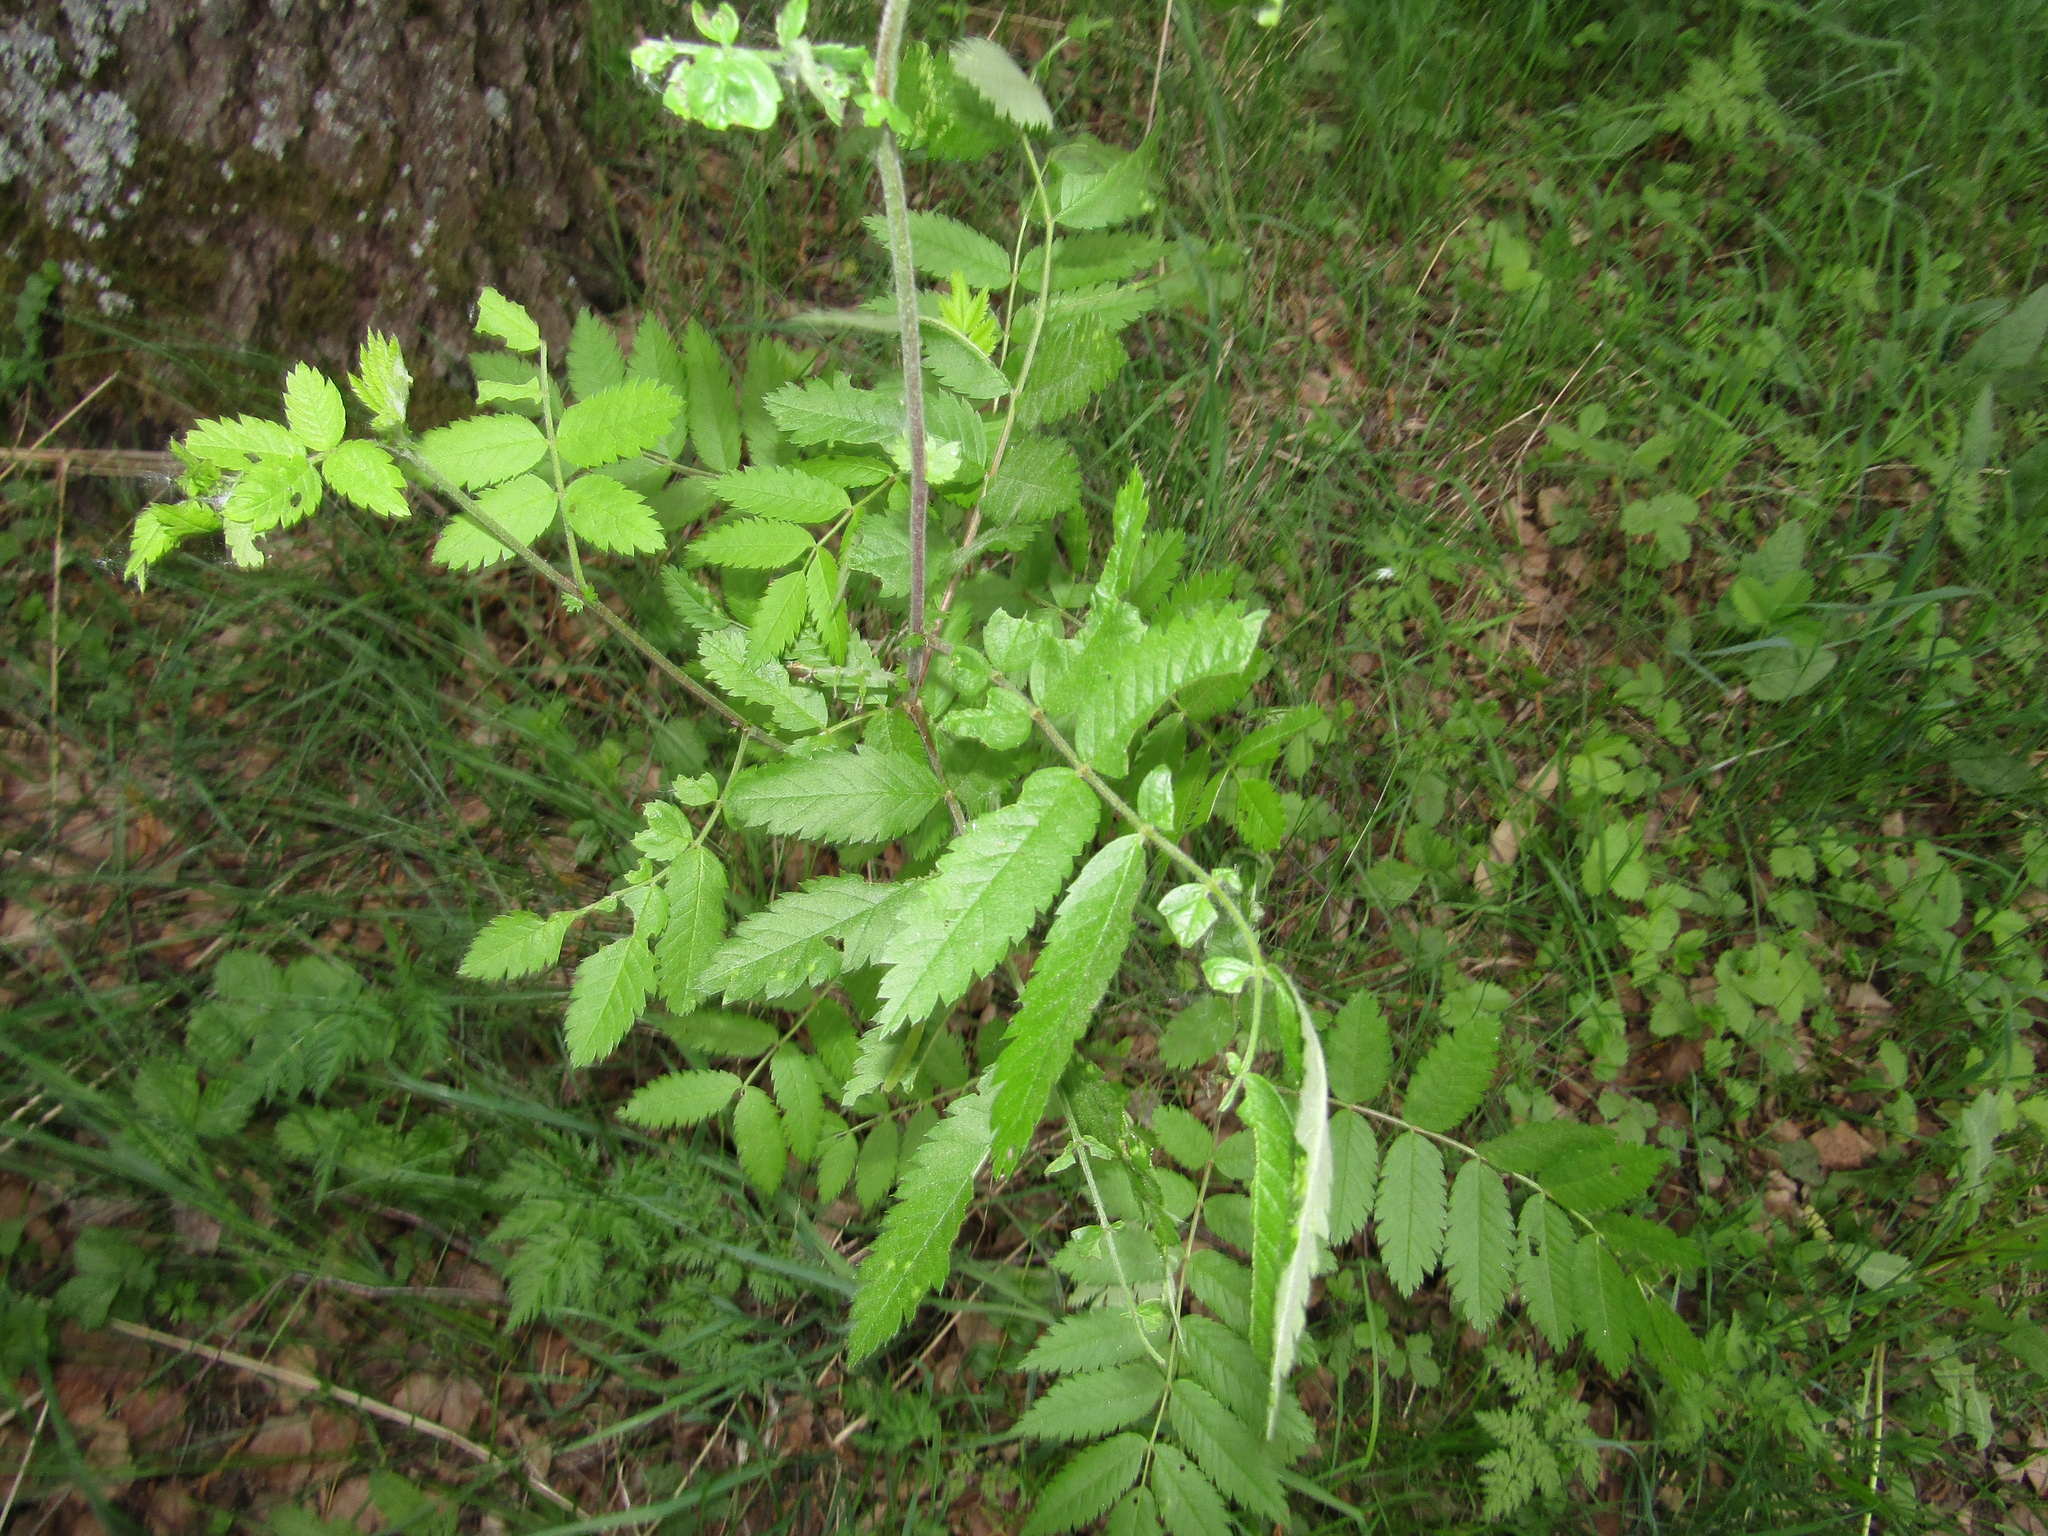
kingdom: Plantae
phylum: Tracheophyta
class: Magnoliopsida
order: Rosales
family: Rosaceae
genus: Sorbus
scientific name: Sorbus aucuparia
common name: Rowan
